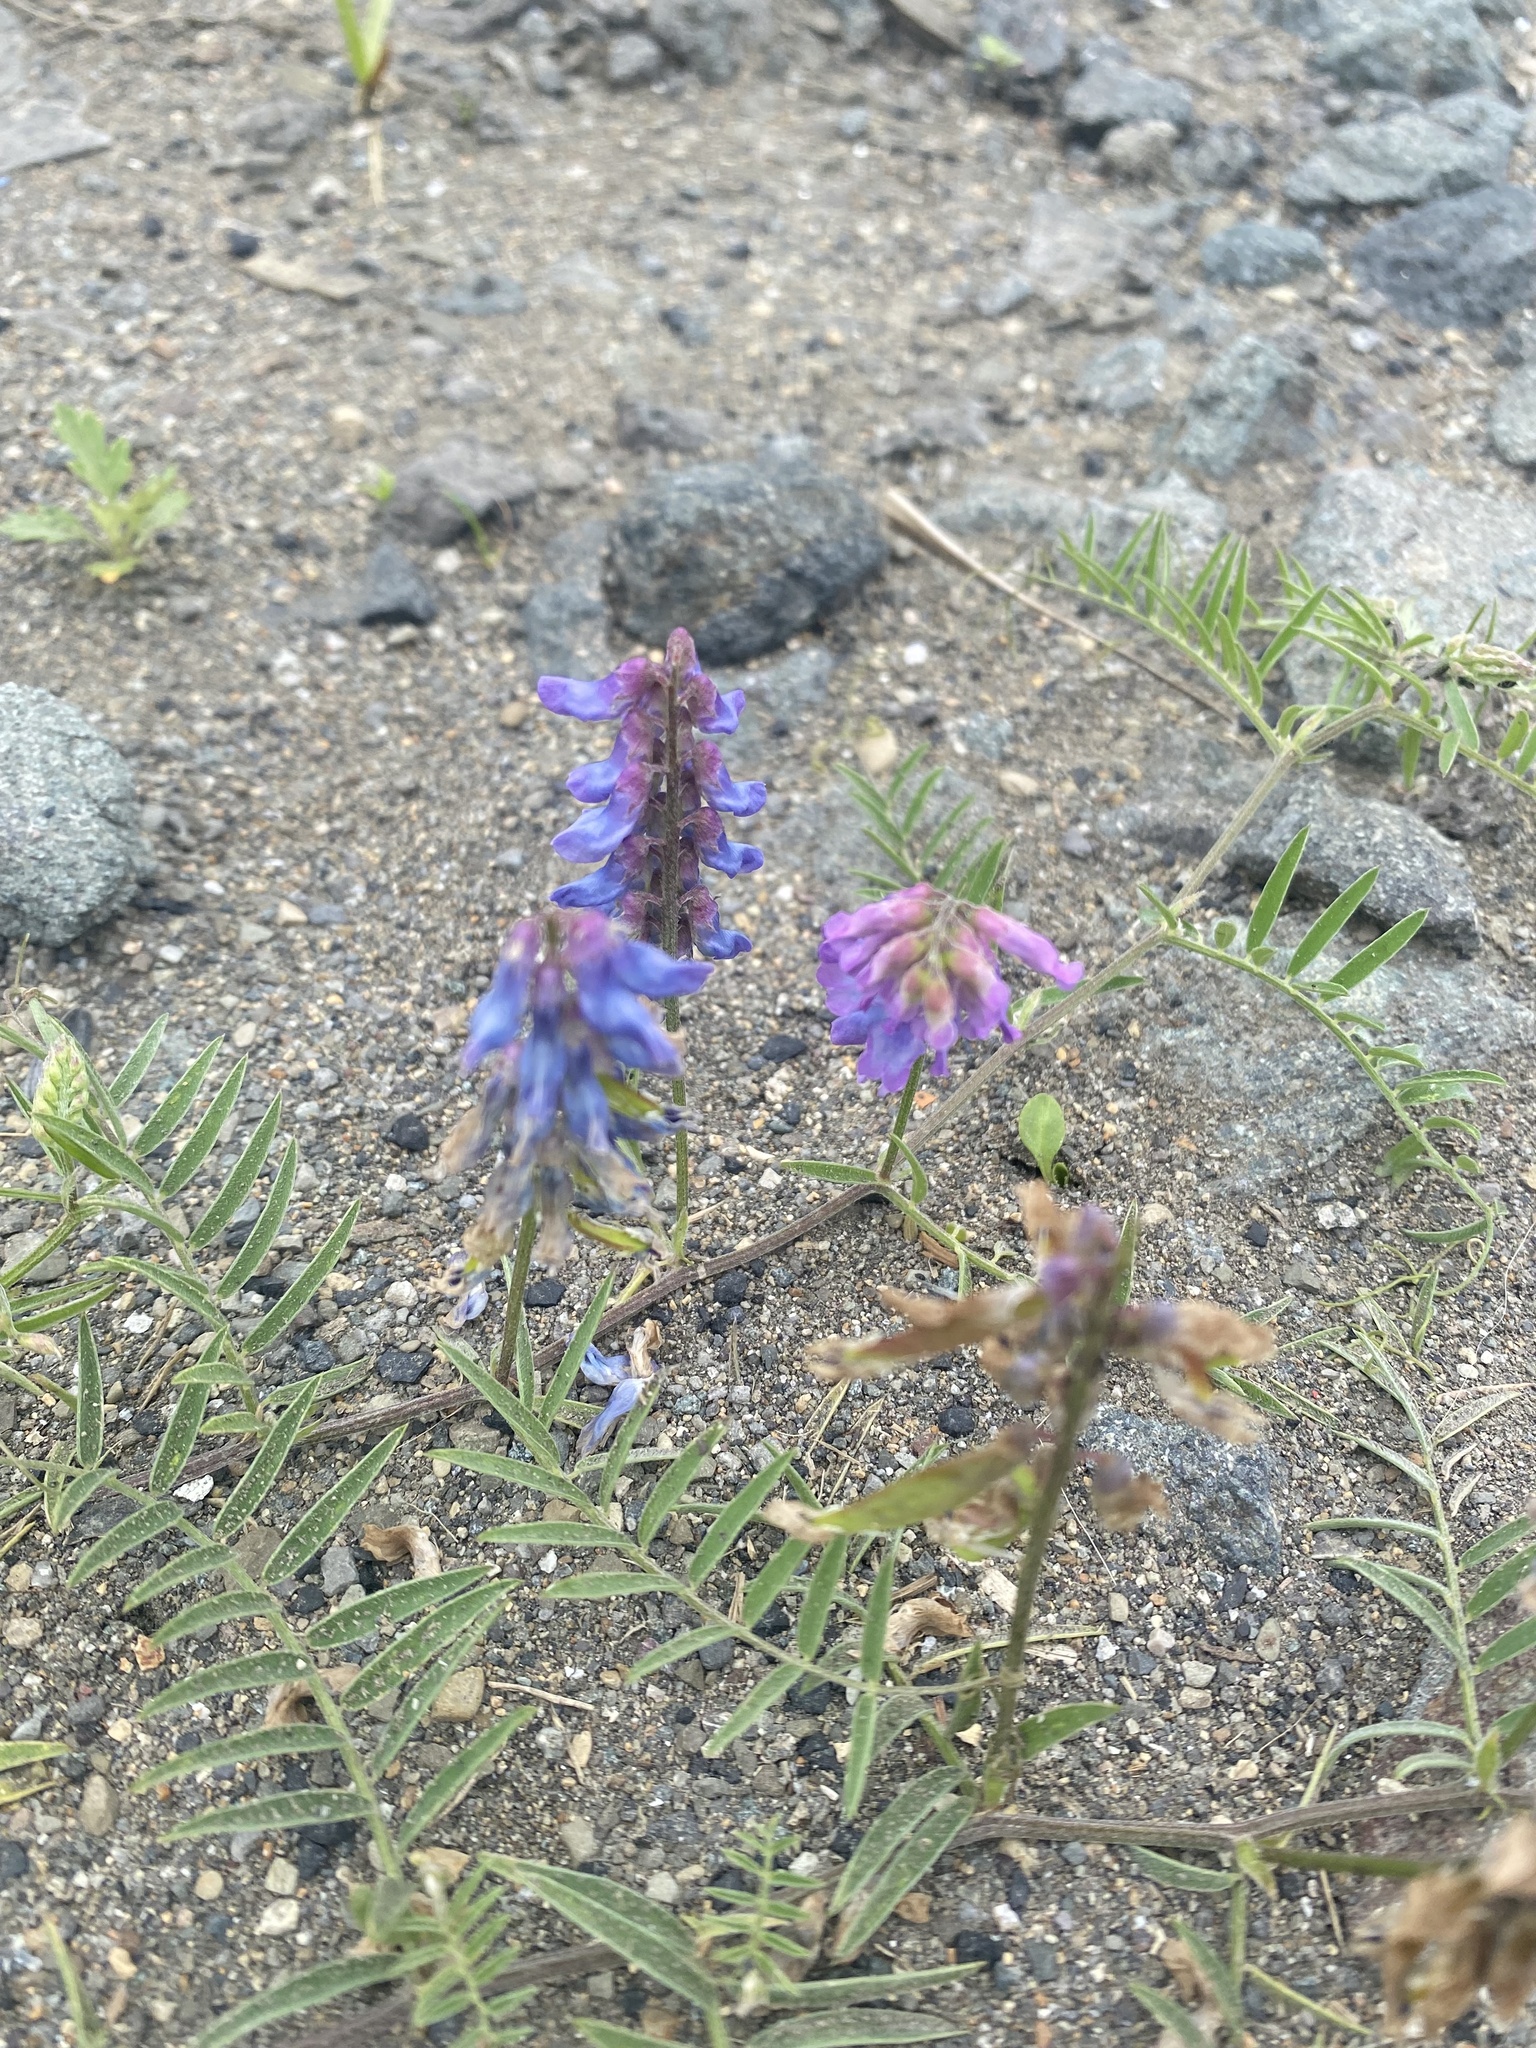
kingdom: Plantae
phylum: Tracheophyta
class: Magnoliopsida
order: Fabales
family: Fabaceae
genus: Vicia
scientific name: Vicia cracca
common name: Bird vetch
